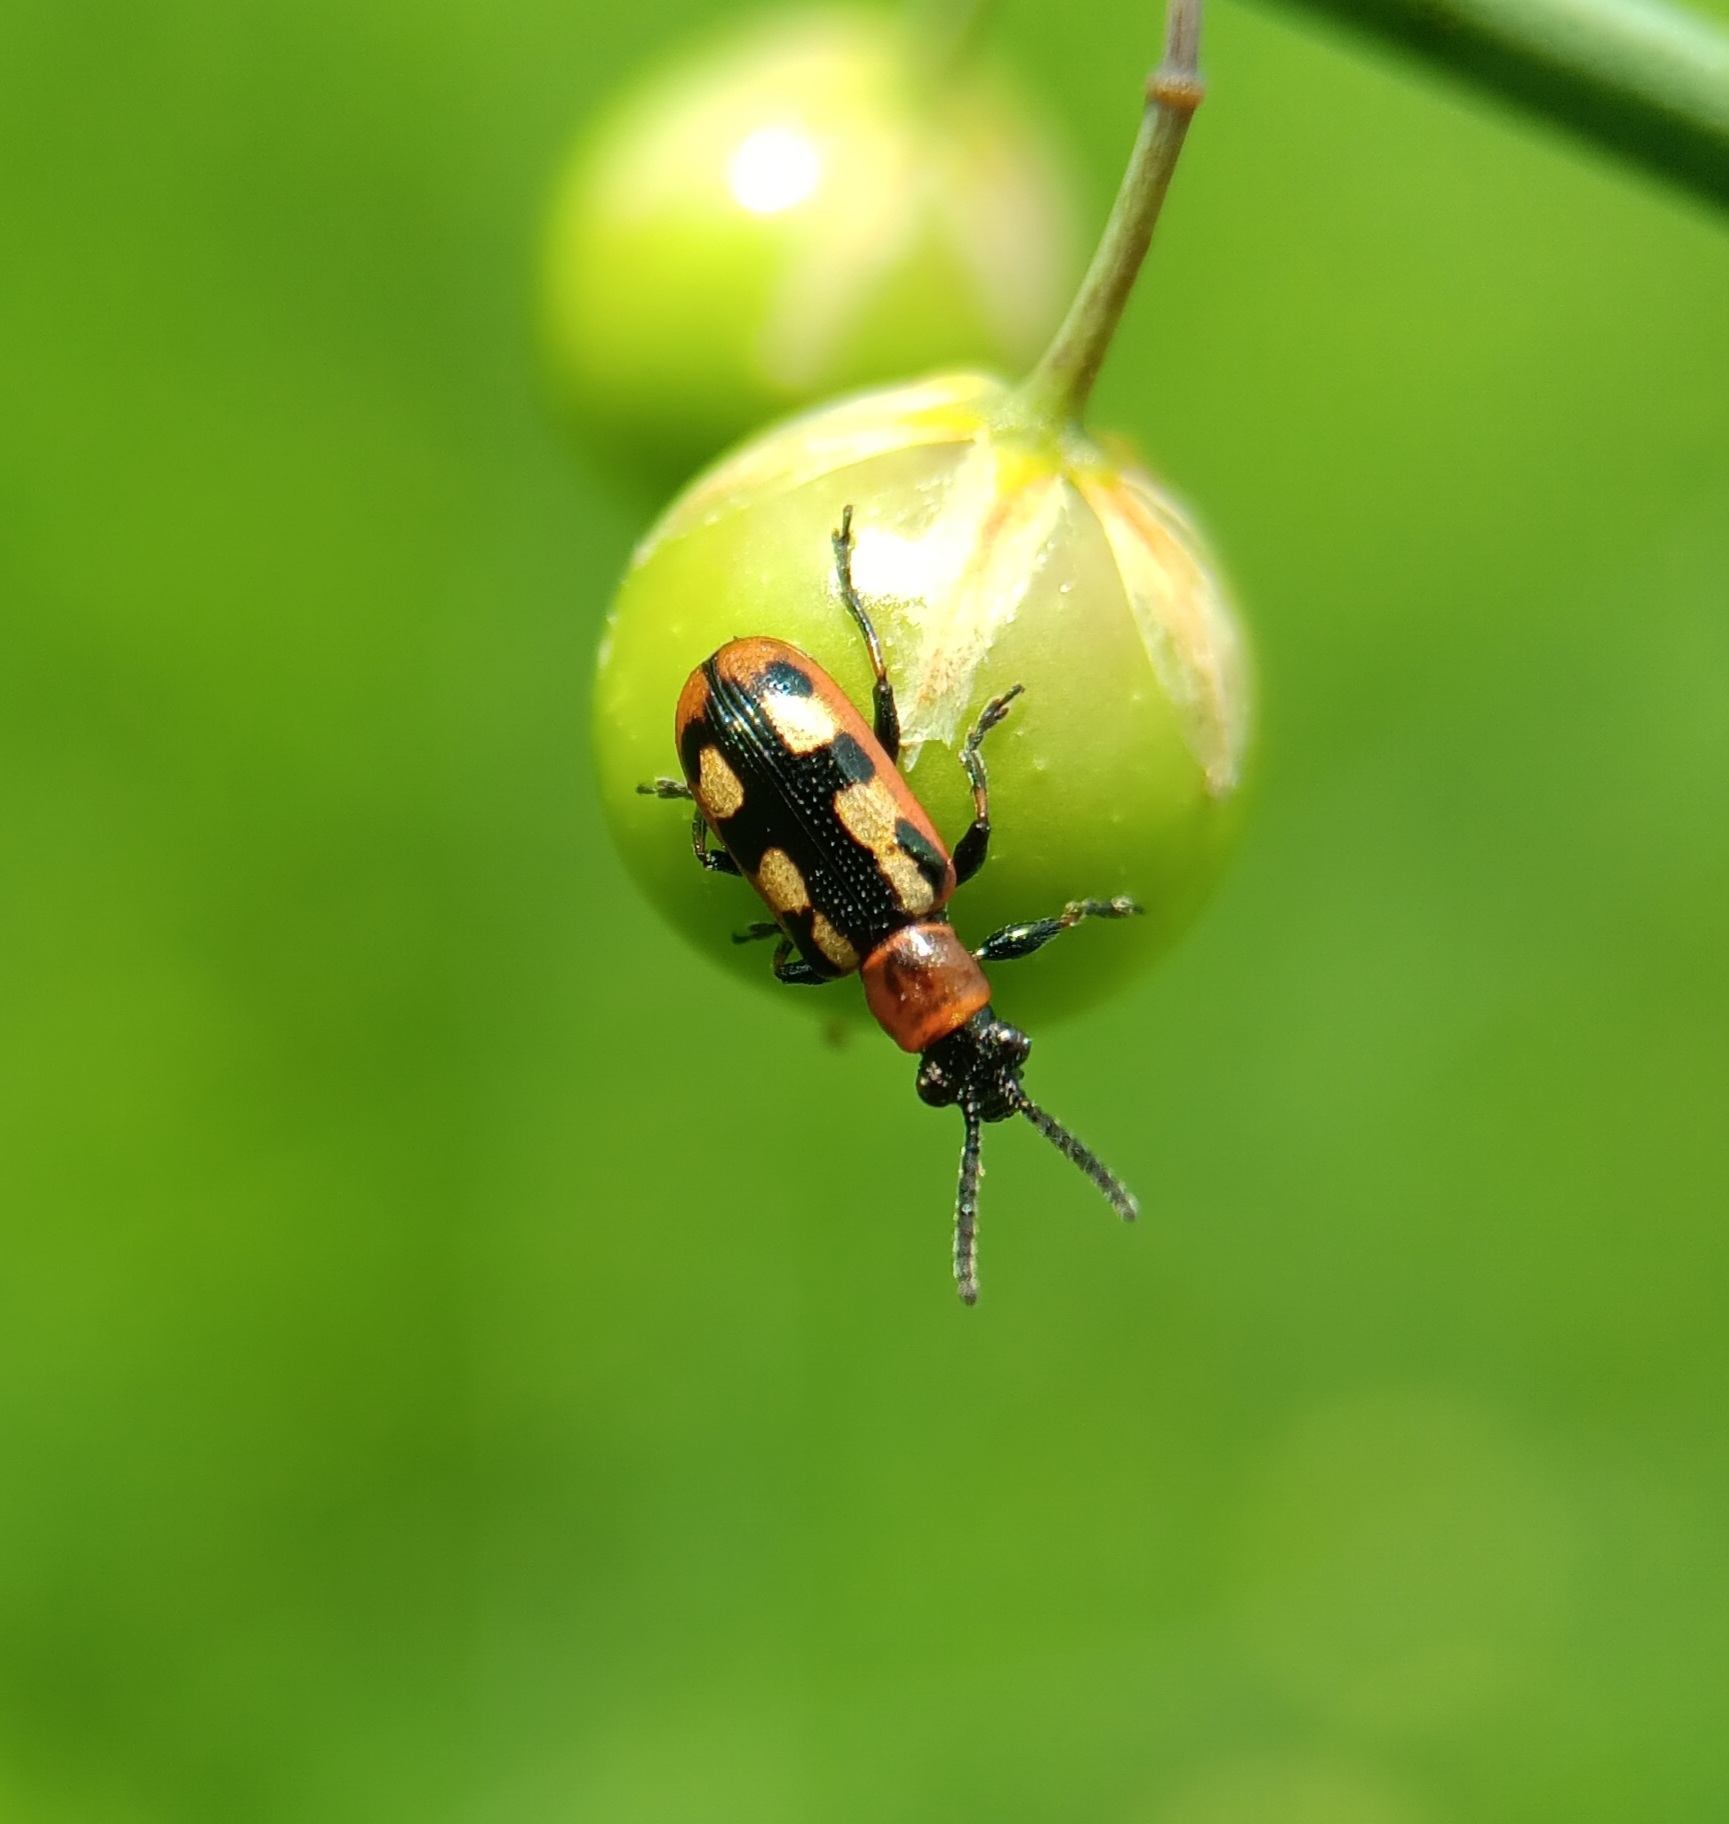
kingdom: Animalia
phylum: Arthropoda
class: Insecta
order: Coleoptera
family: Chrysomelidae
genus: Crioceris
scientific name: Crioceris asparagi
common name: Asparagus beetle
